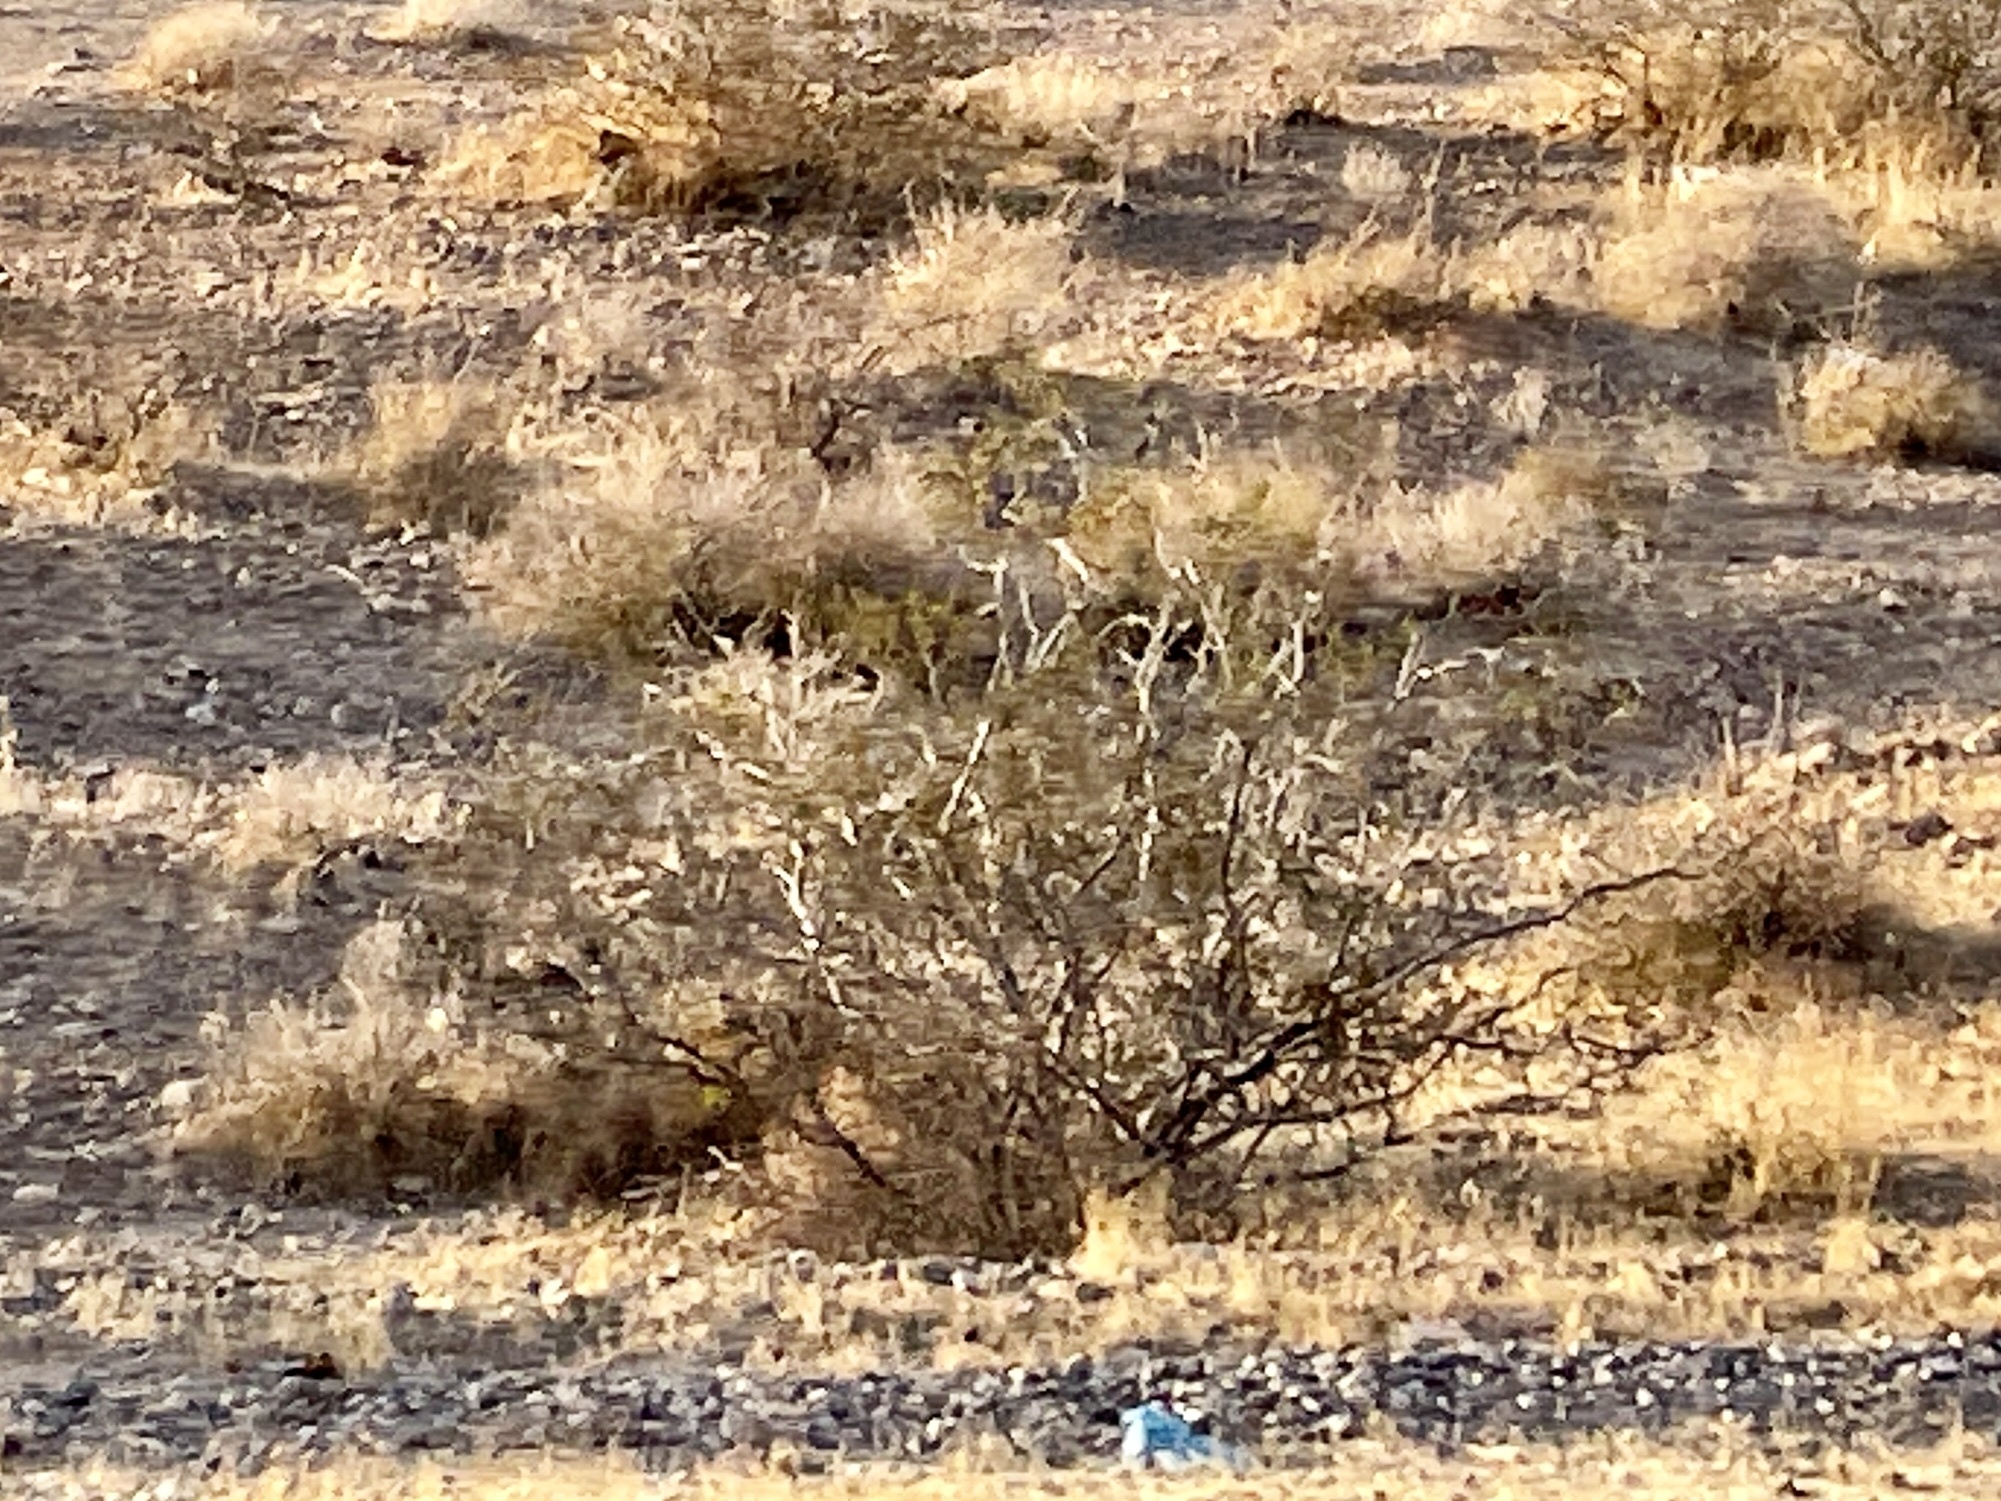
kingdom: Plantae
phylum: Tracheophyta
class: Magnoliopsida
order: Zygophyllales
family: Zygophyllaceae
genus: Larrea
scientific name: Larrea tridentata
